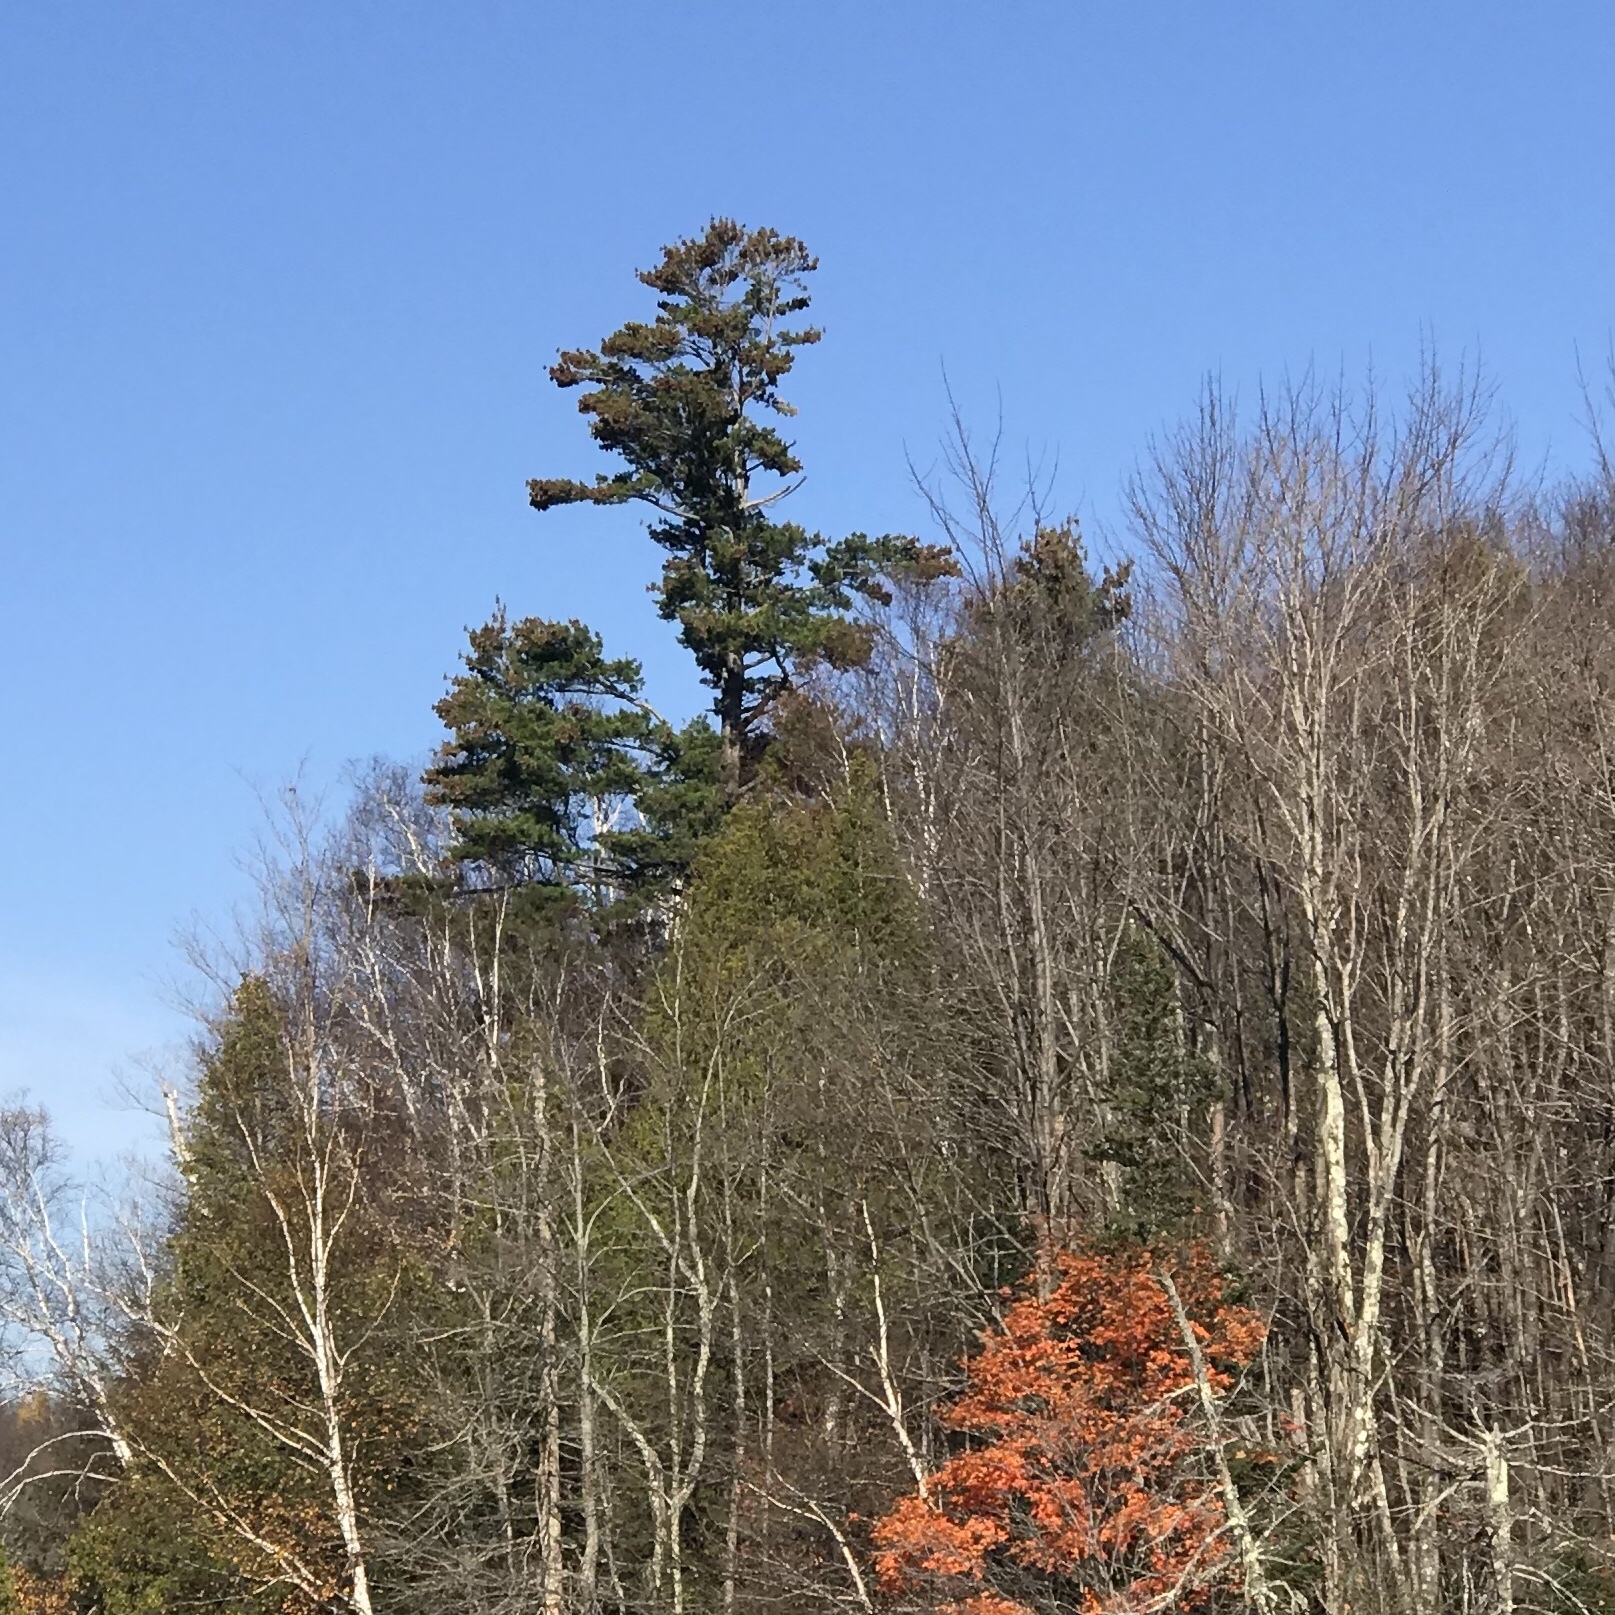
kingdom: Plantae
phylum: Tracheophyta
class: Pinopsida
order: Pinales
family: Pinaceae
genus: Pinus
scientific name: Pinus strobus
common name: Weymouth pine
